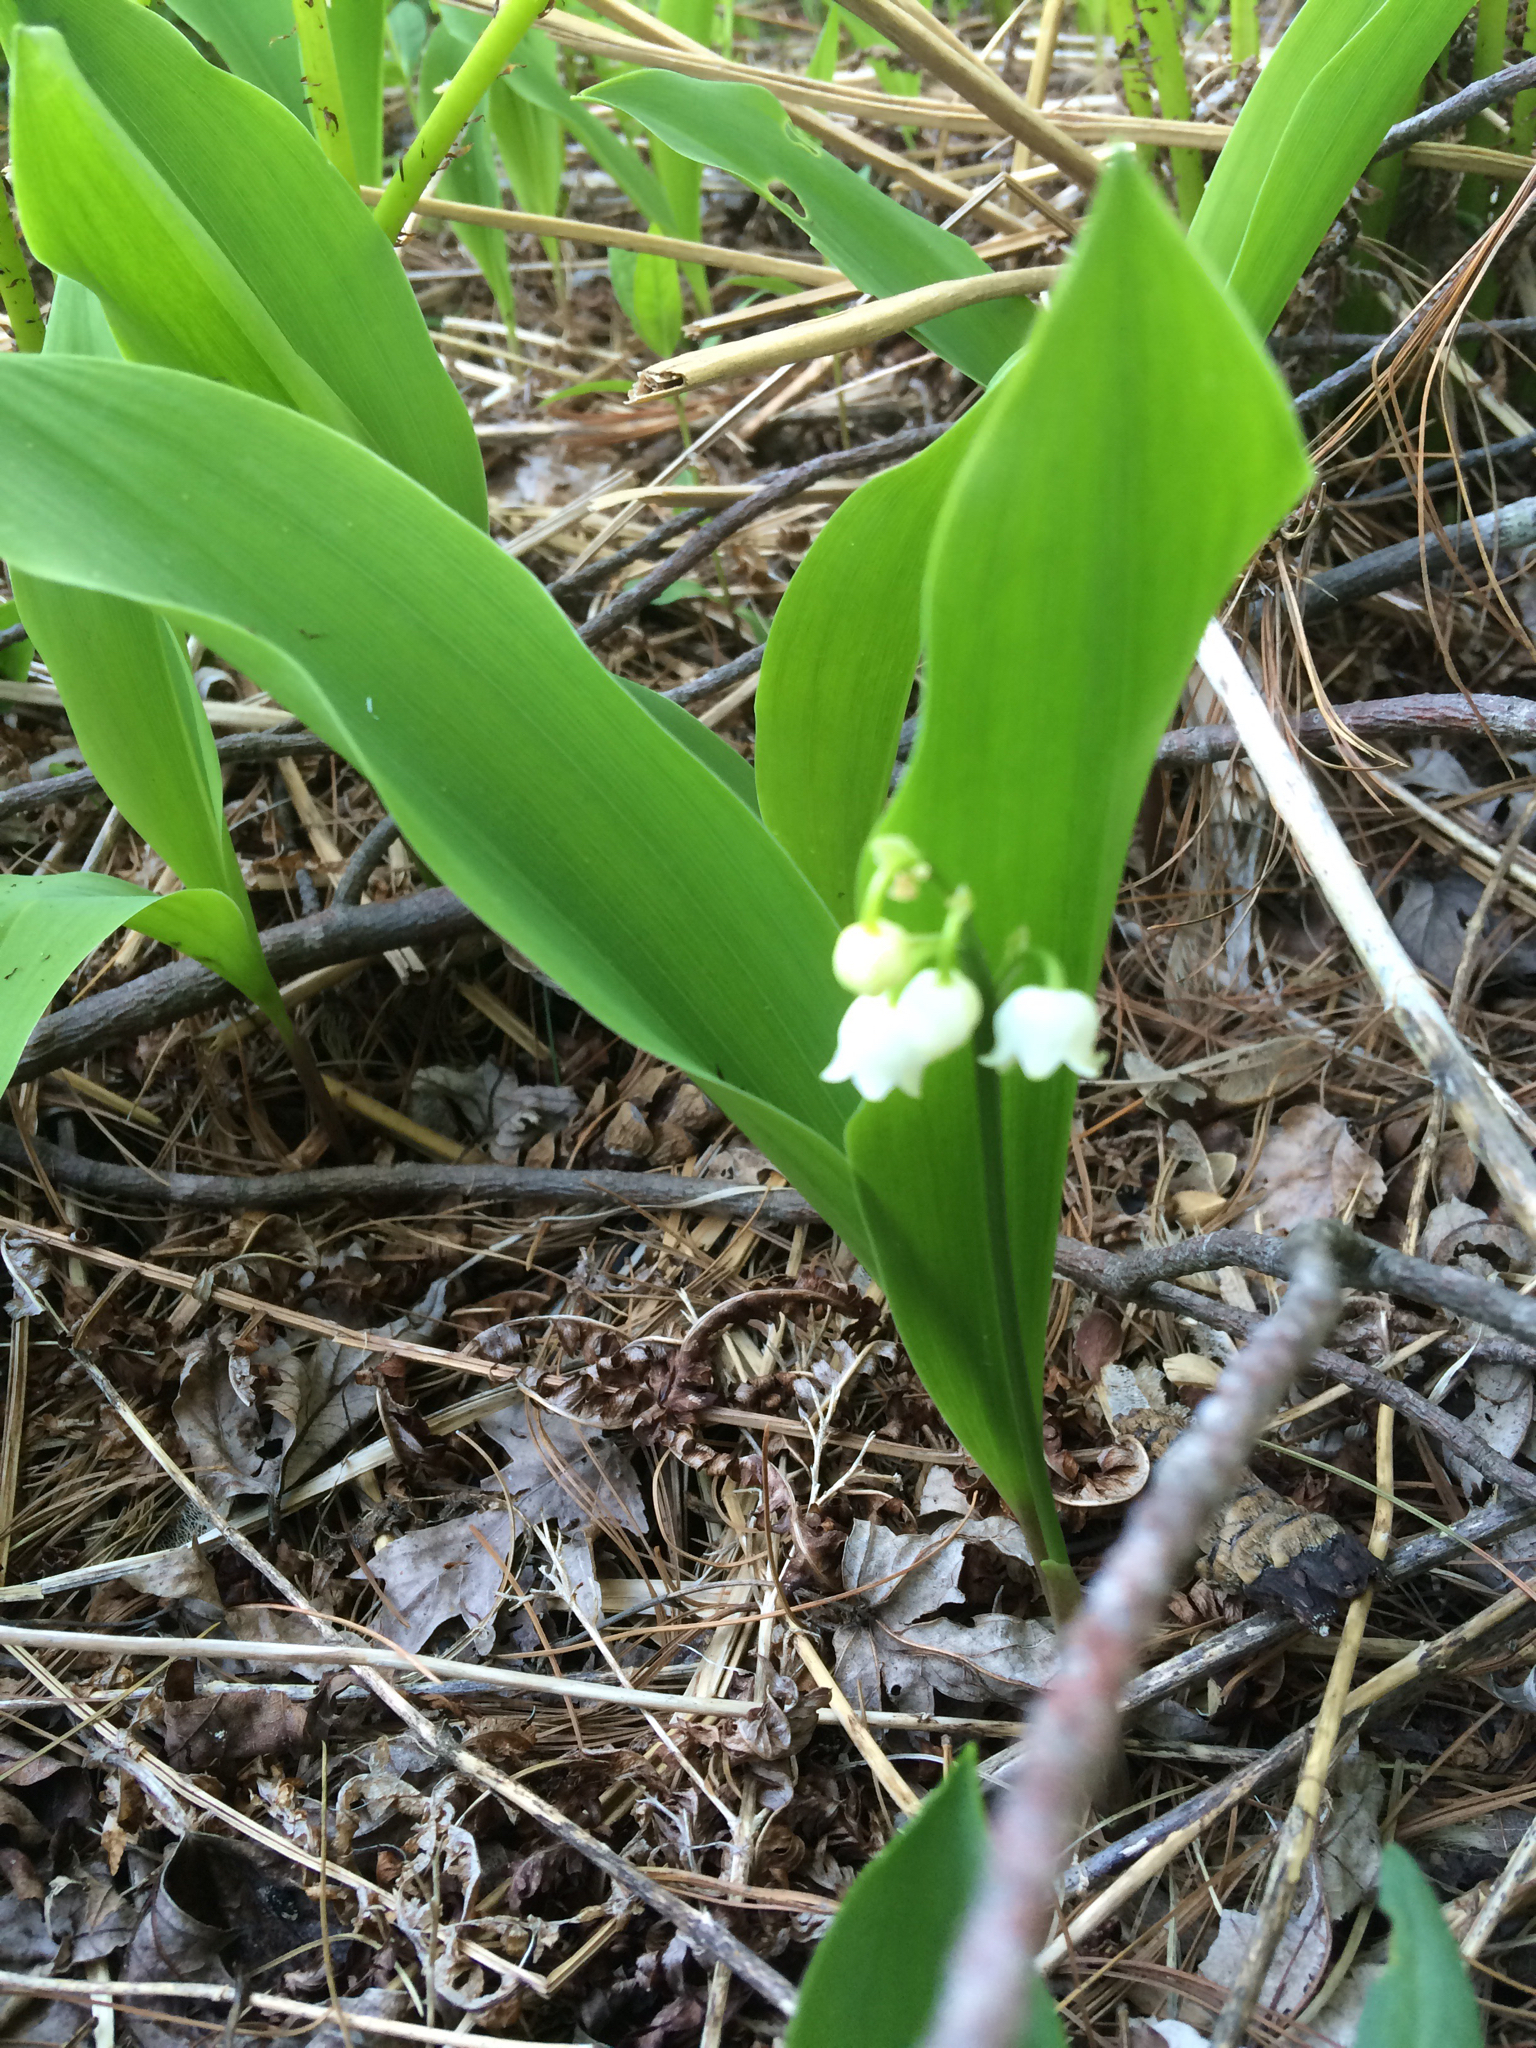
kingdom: Plantae
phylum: Tracheophyta
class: Liliopsida
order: Asparagales
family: Asparagaceae
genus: Convallaria
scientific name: Convallaria majalis
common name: Lily-of-the-valley
